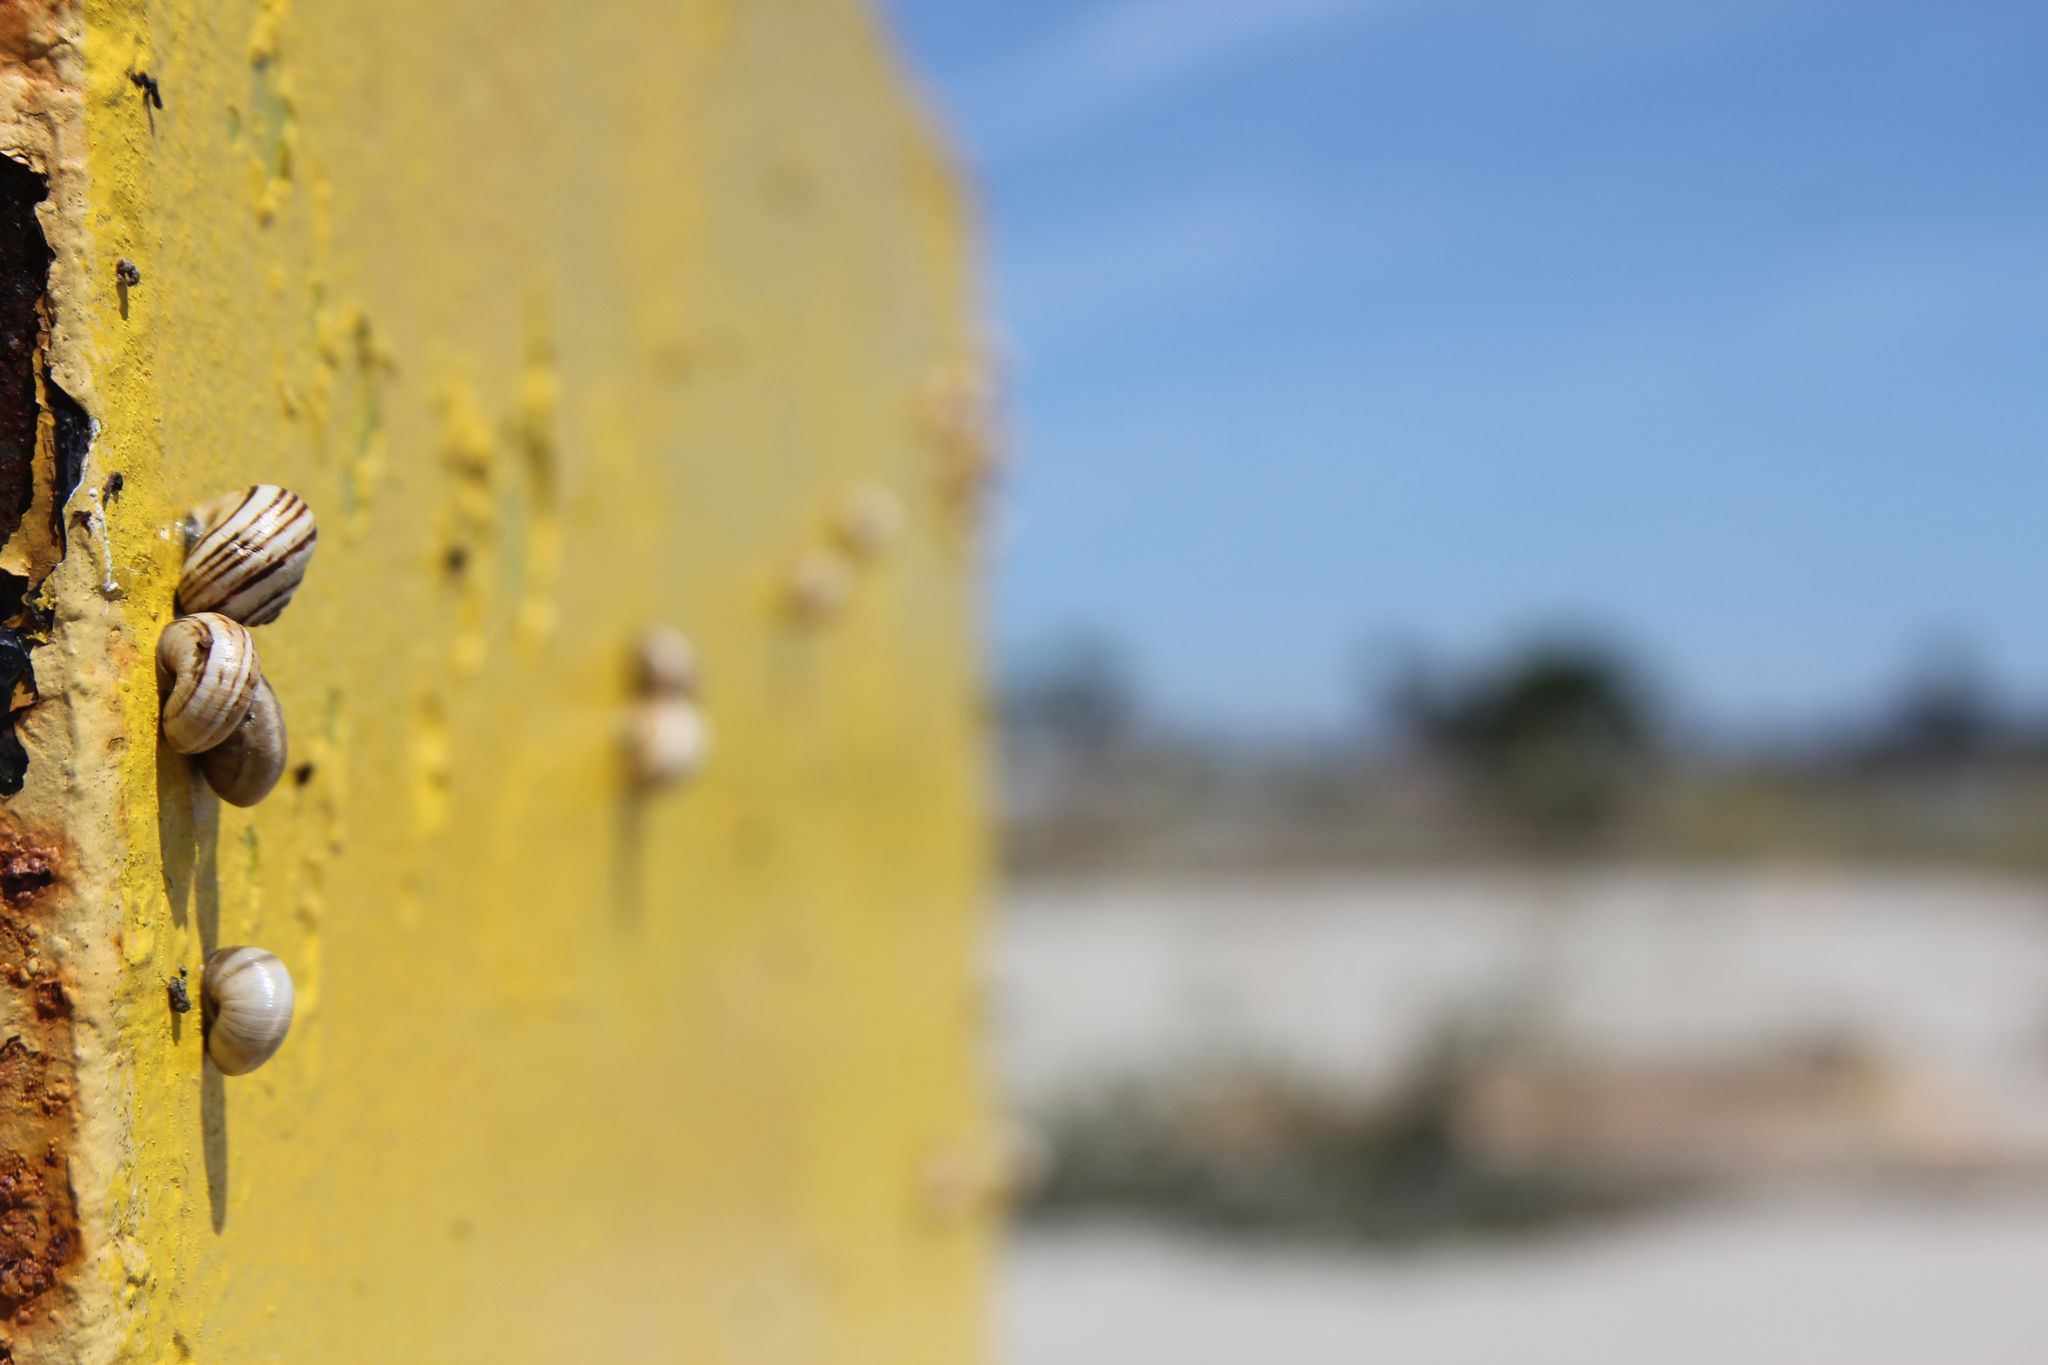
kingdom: Animalia
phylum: Mollusca
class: Gastropoda
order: Stylommatophora
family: Helicidae
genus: Theba
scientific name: Theba pisana
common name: White snail
